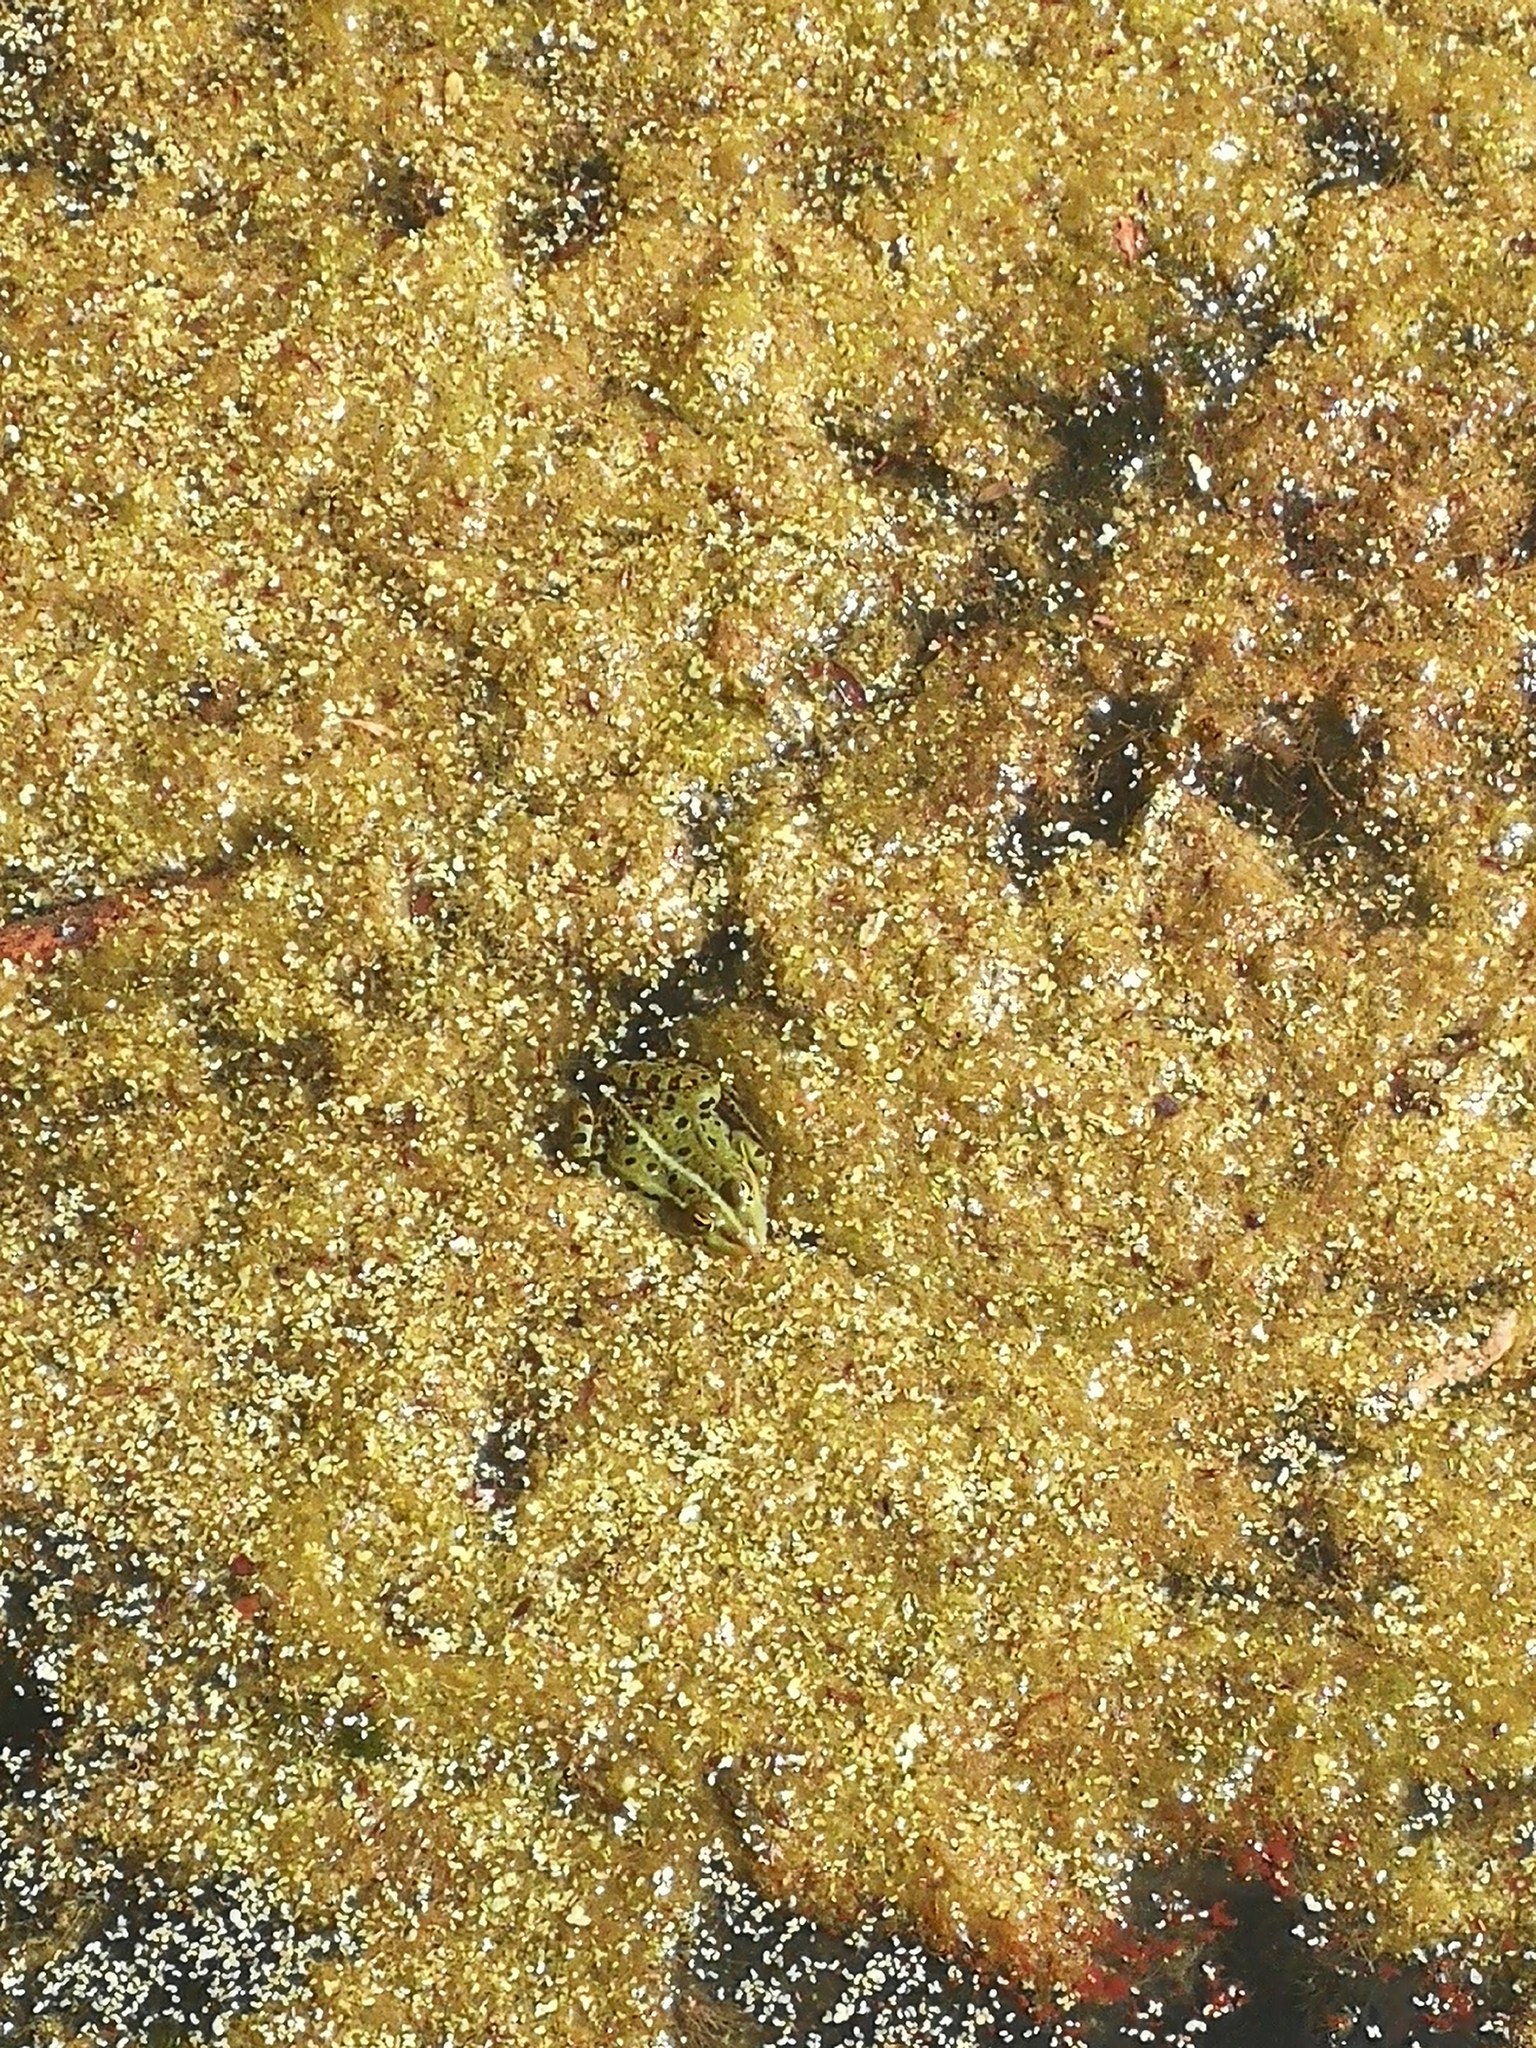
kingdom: Animalia
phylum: Chordata
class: Amphibia
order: Anura
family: Ranidae
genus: Pelophylax
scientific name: Pelophylax
